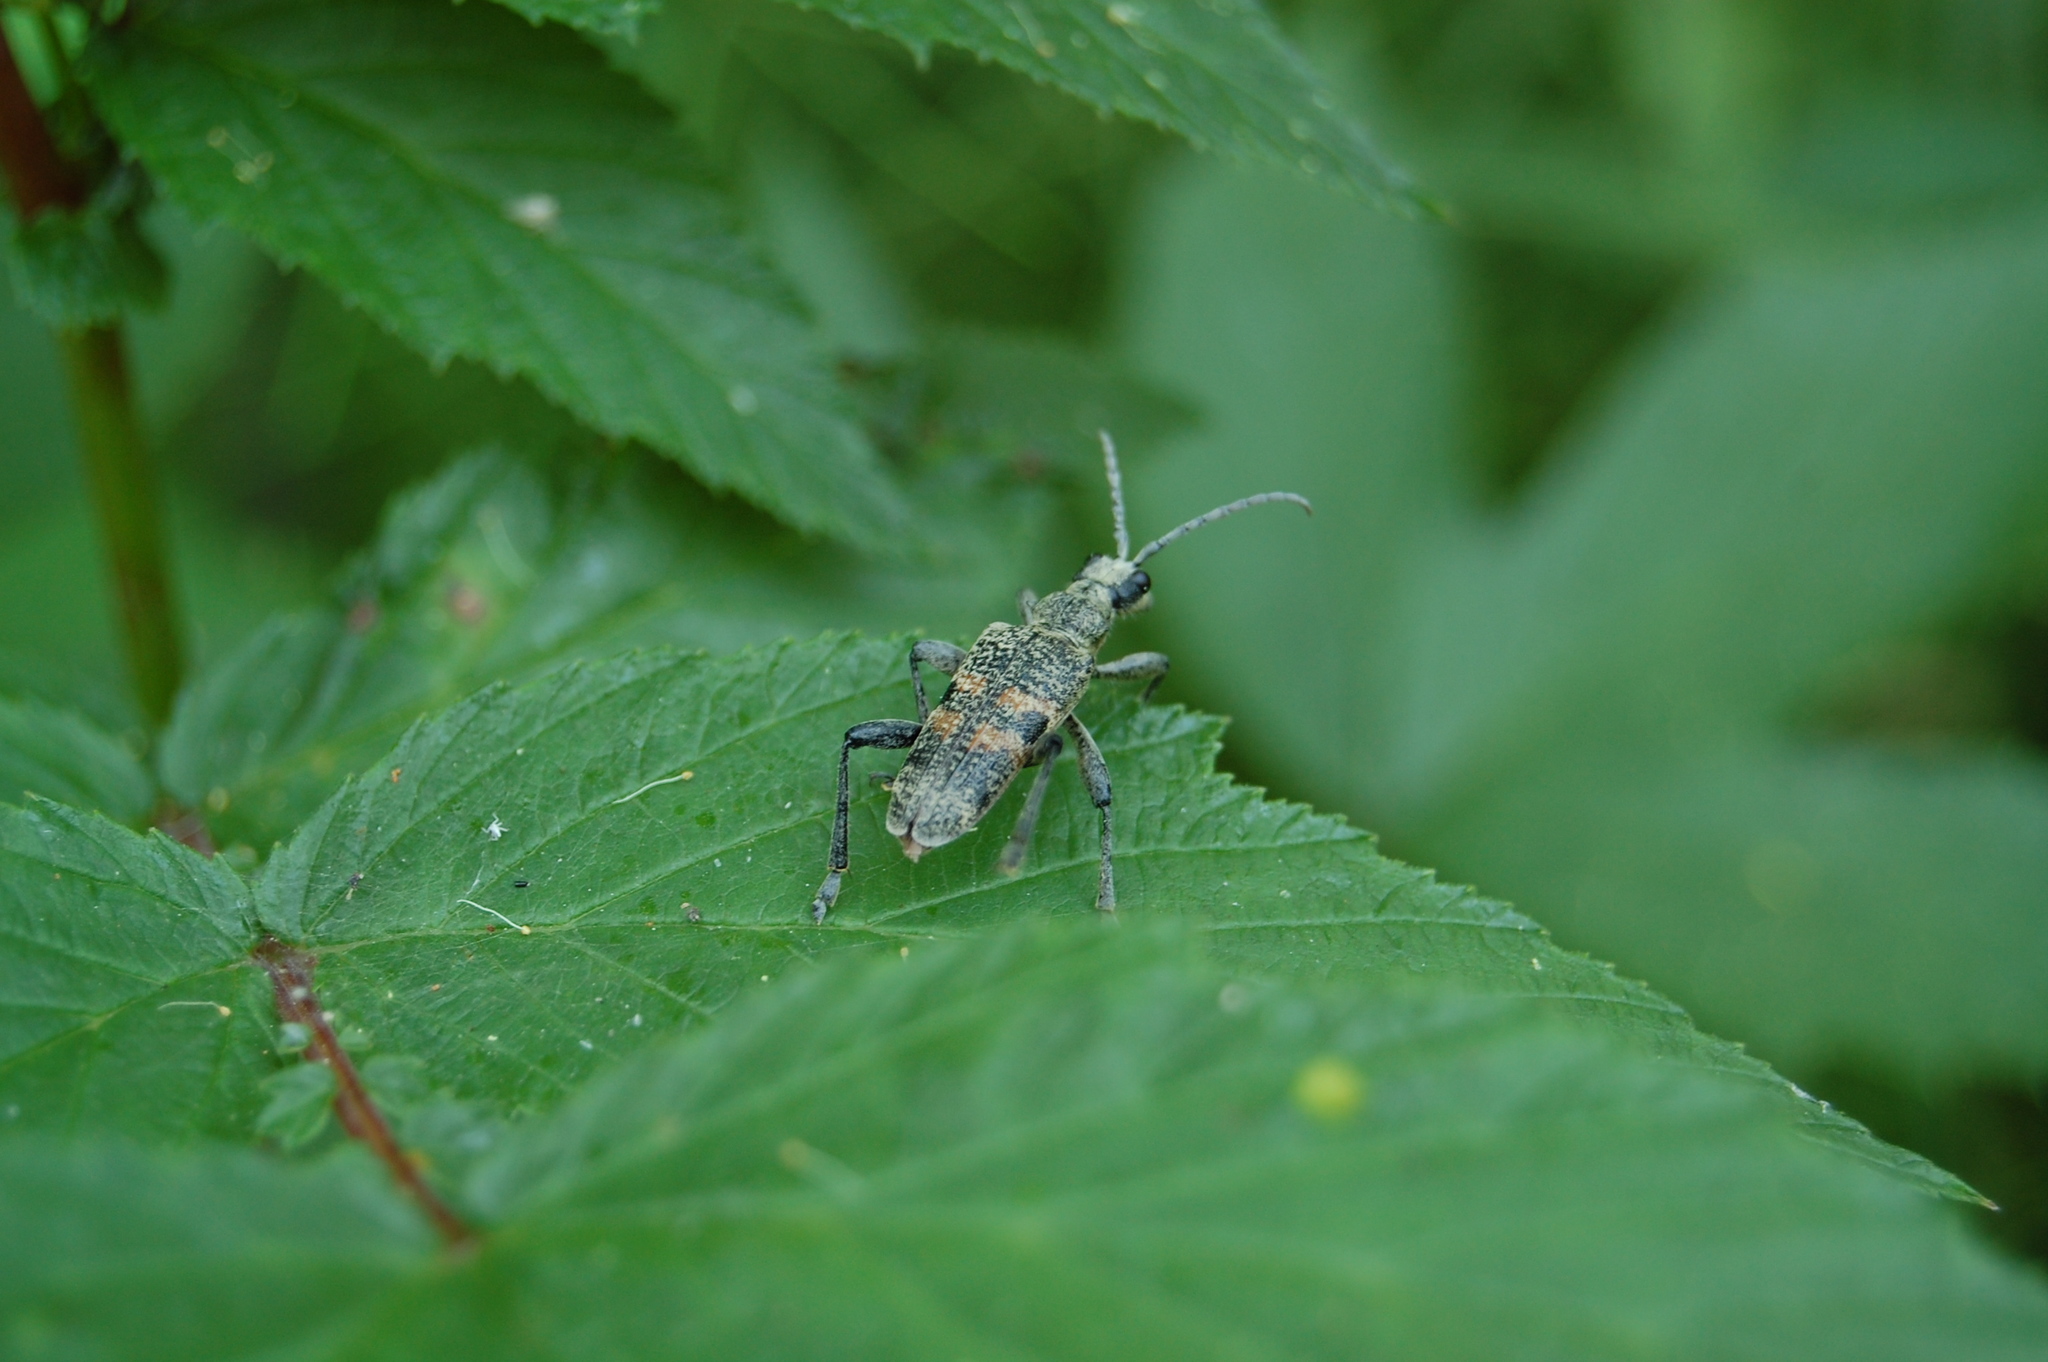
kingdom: Animalia
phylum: Arthropoda
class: Insecta
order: Coleoptera
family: Cerambycidae
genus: Rhagium
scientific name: Rhagium mordax
